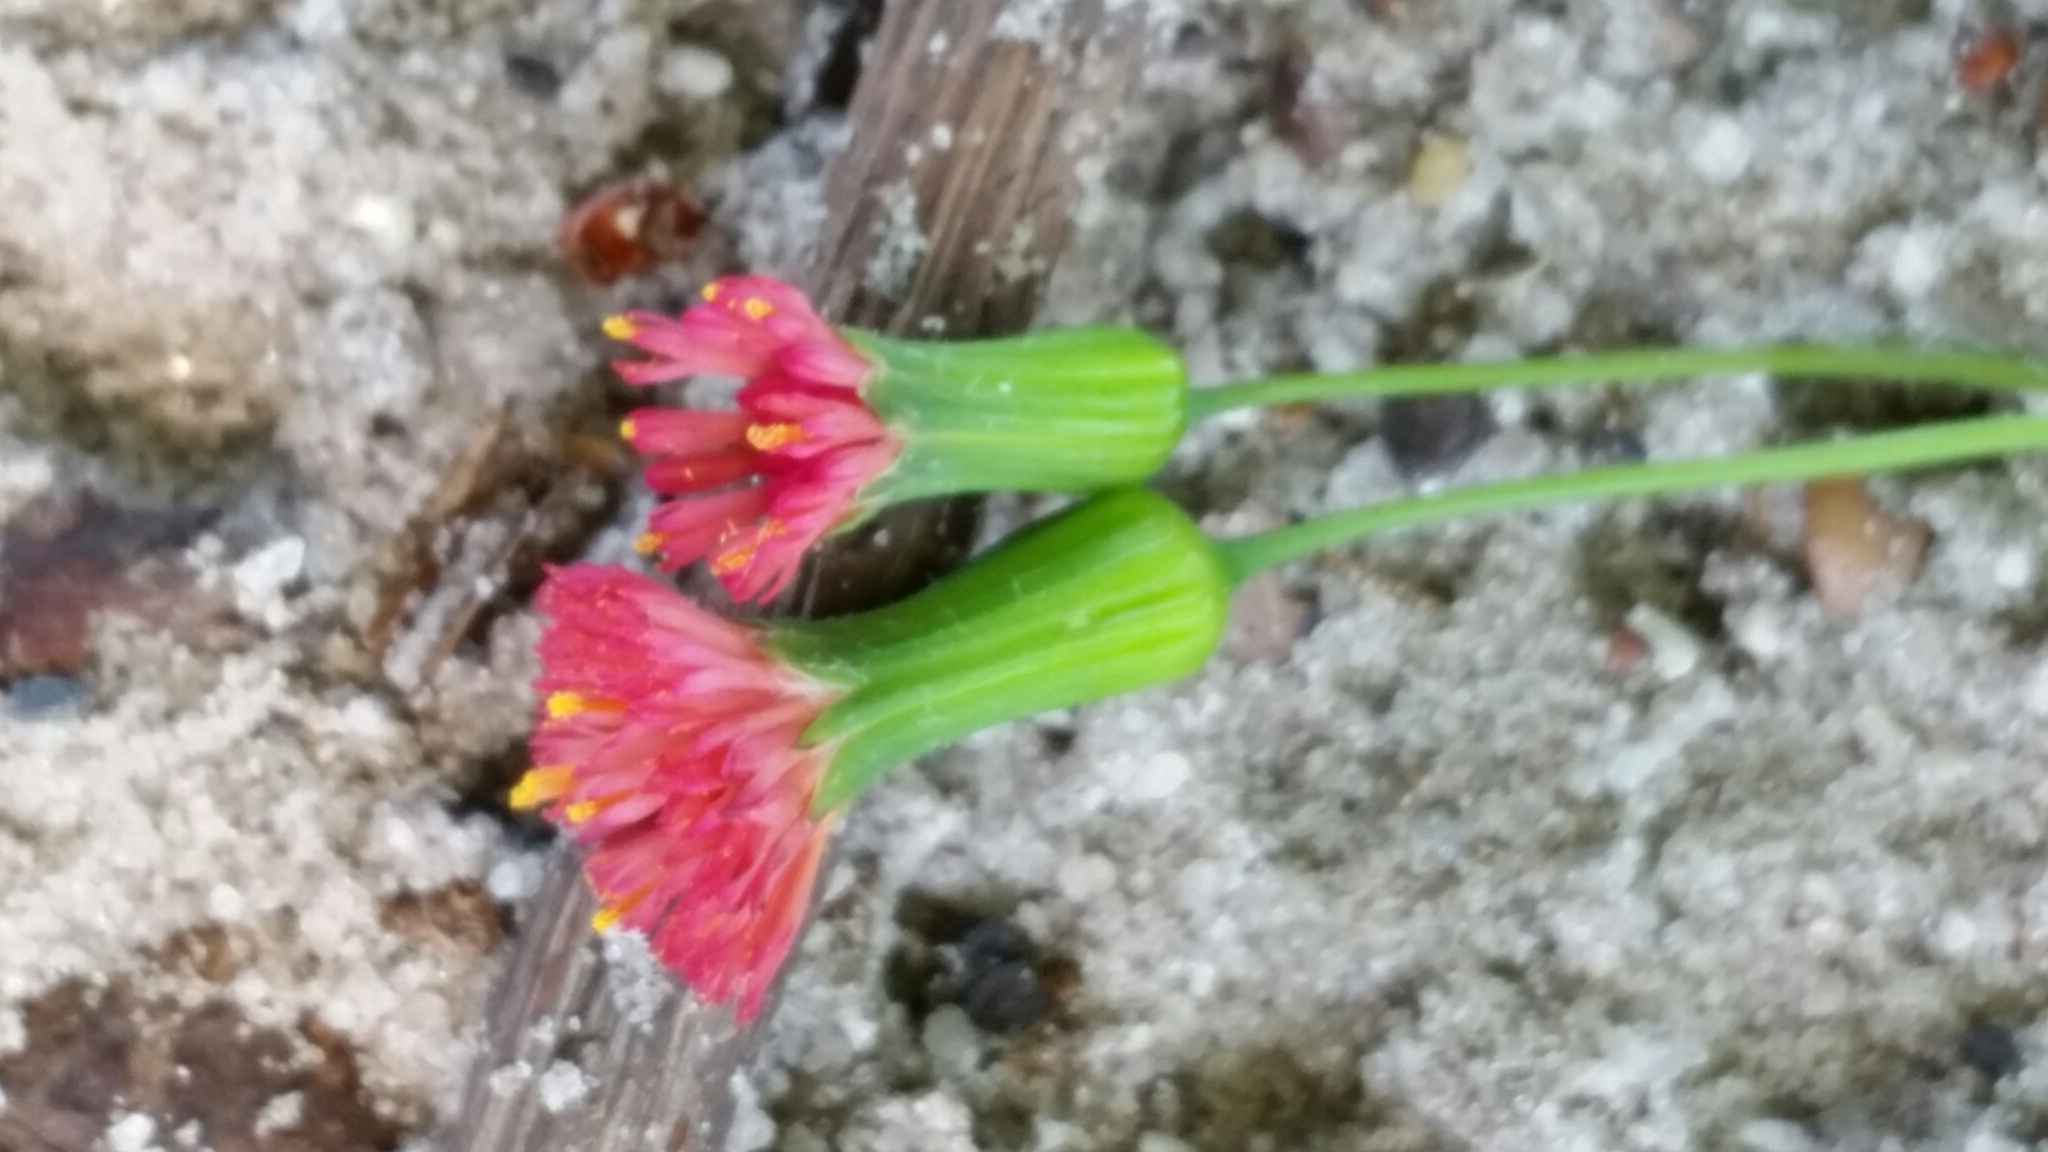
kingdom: Plantae
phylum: Tracheophyta
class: Magnoliopsida
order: Asterales
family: Asteraceae
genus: Emilia
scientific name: Emilia fosbergii
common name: Florida tasselflower
